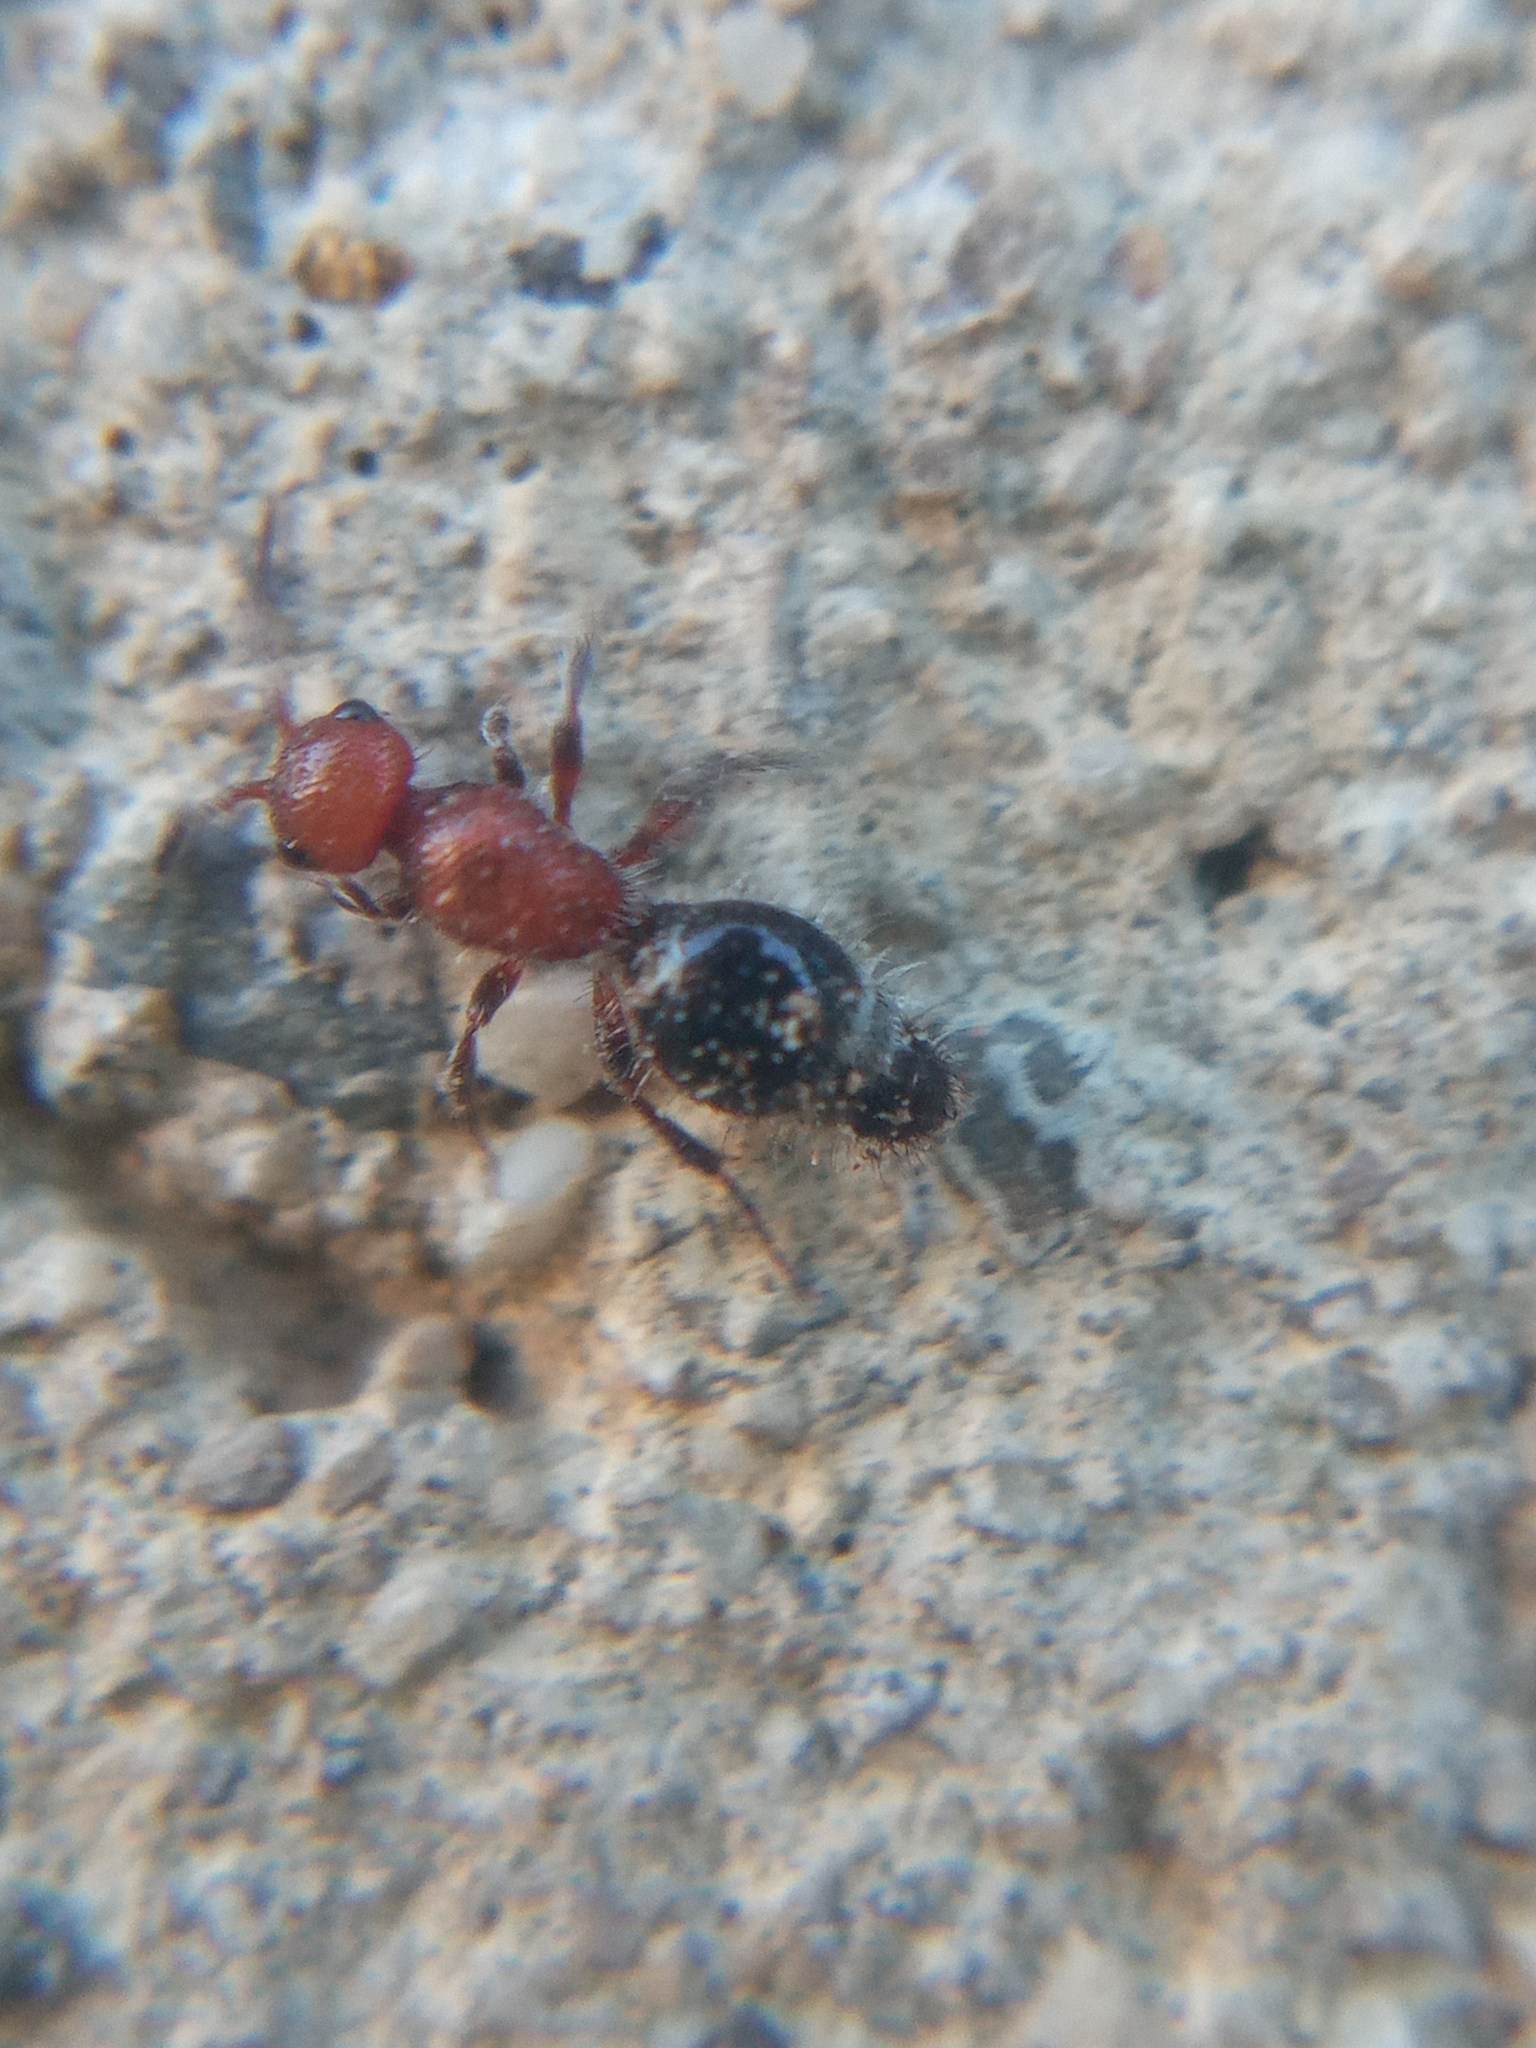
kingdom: Animalia
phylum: Arthropoda
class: Insecta
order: Hymenoptera
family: Mutillidae
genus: Cystomutilla
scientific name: Cystomutilla ruficeps
